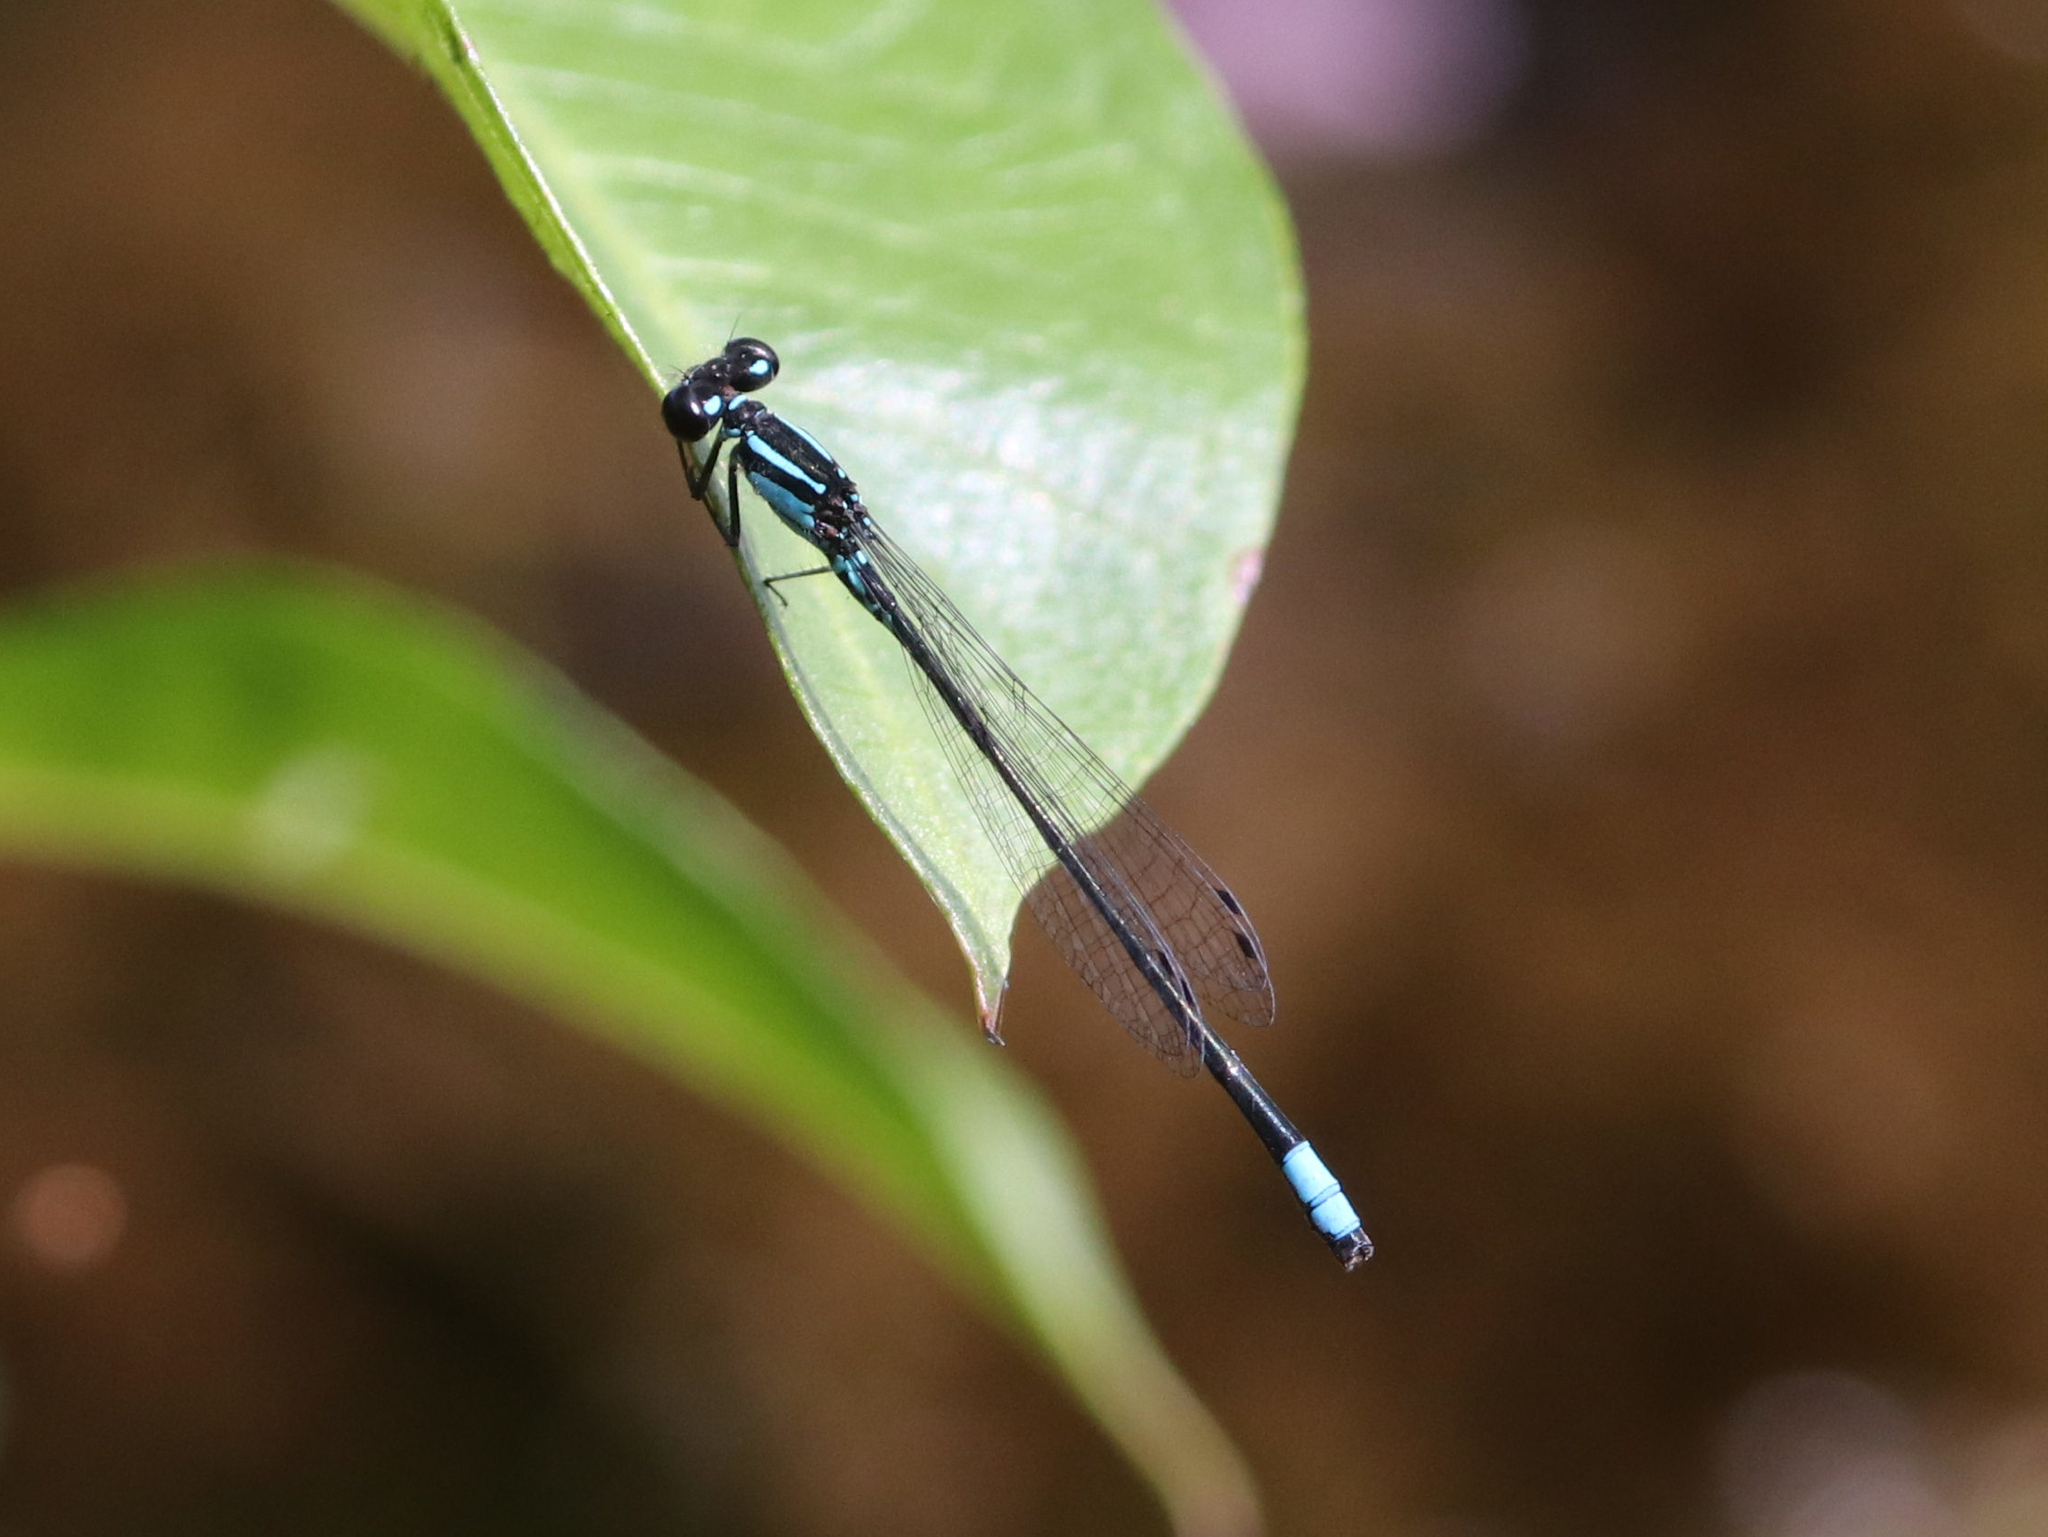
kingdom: Animalia
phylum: Arthropoda
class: Insecta
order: Odonata
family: Coenagrionidae
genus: Enallagma
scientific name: Enallagma geminatum
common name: Skimming bluet
